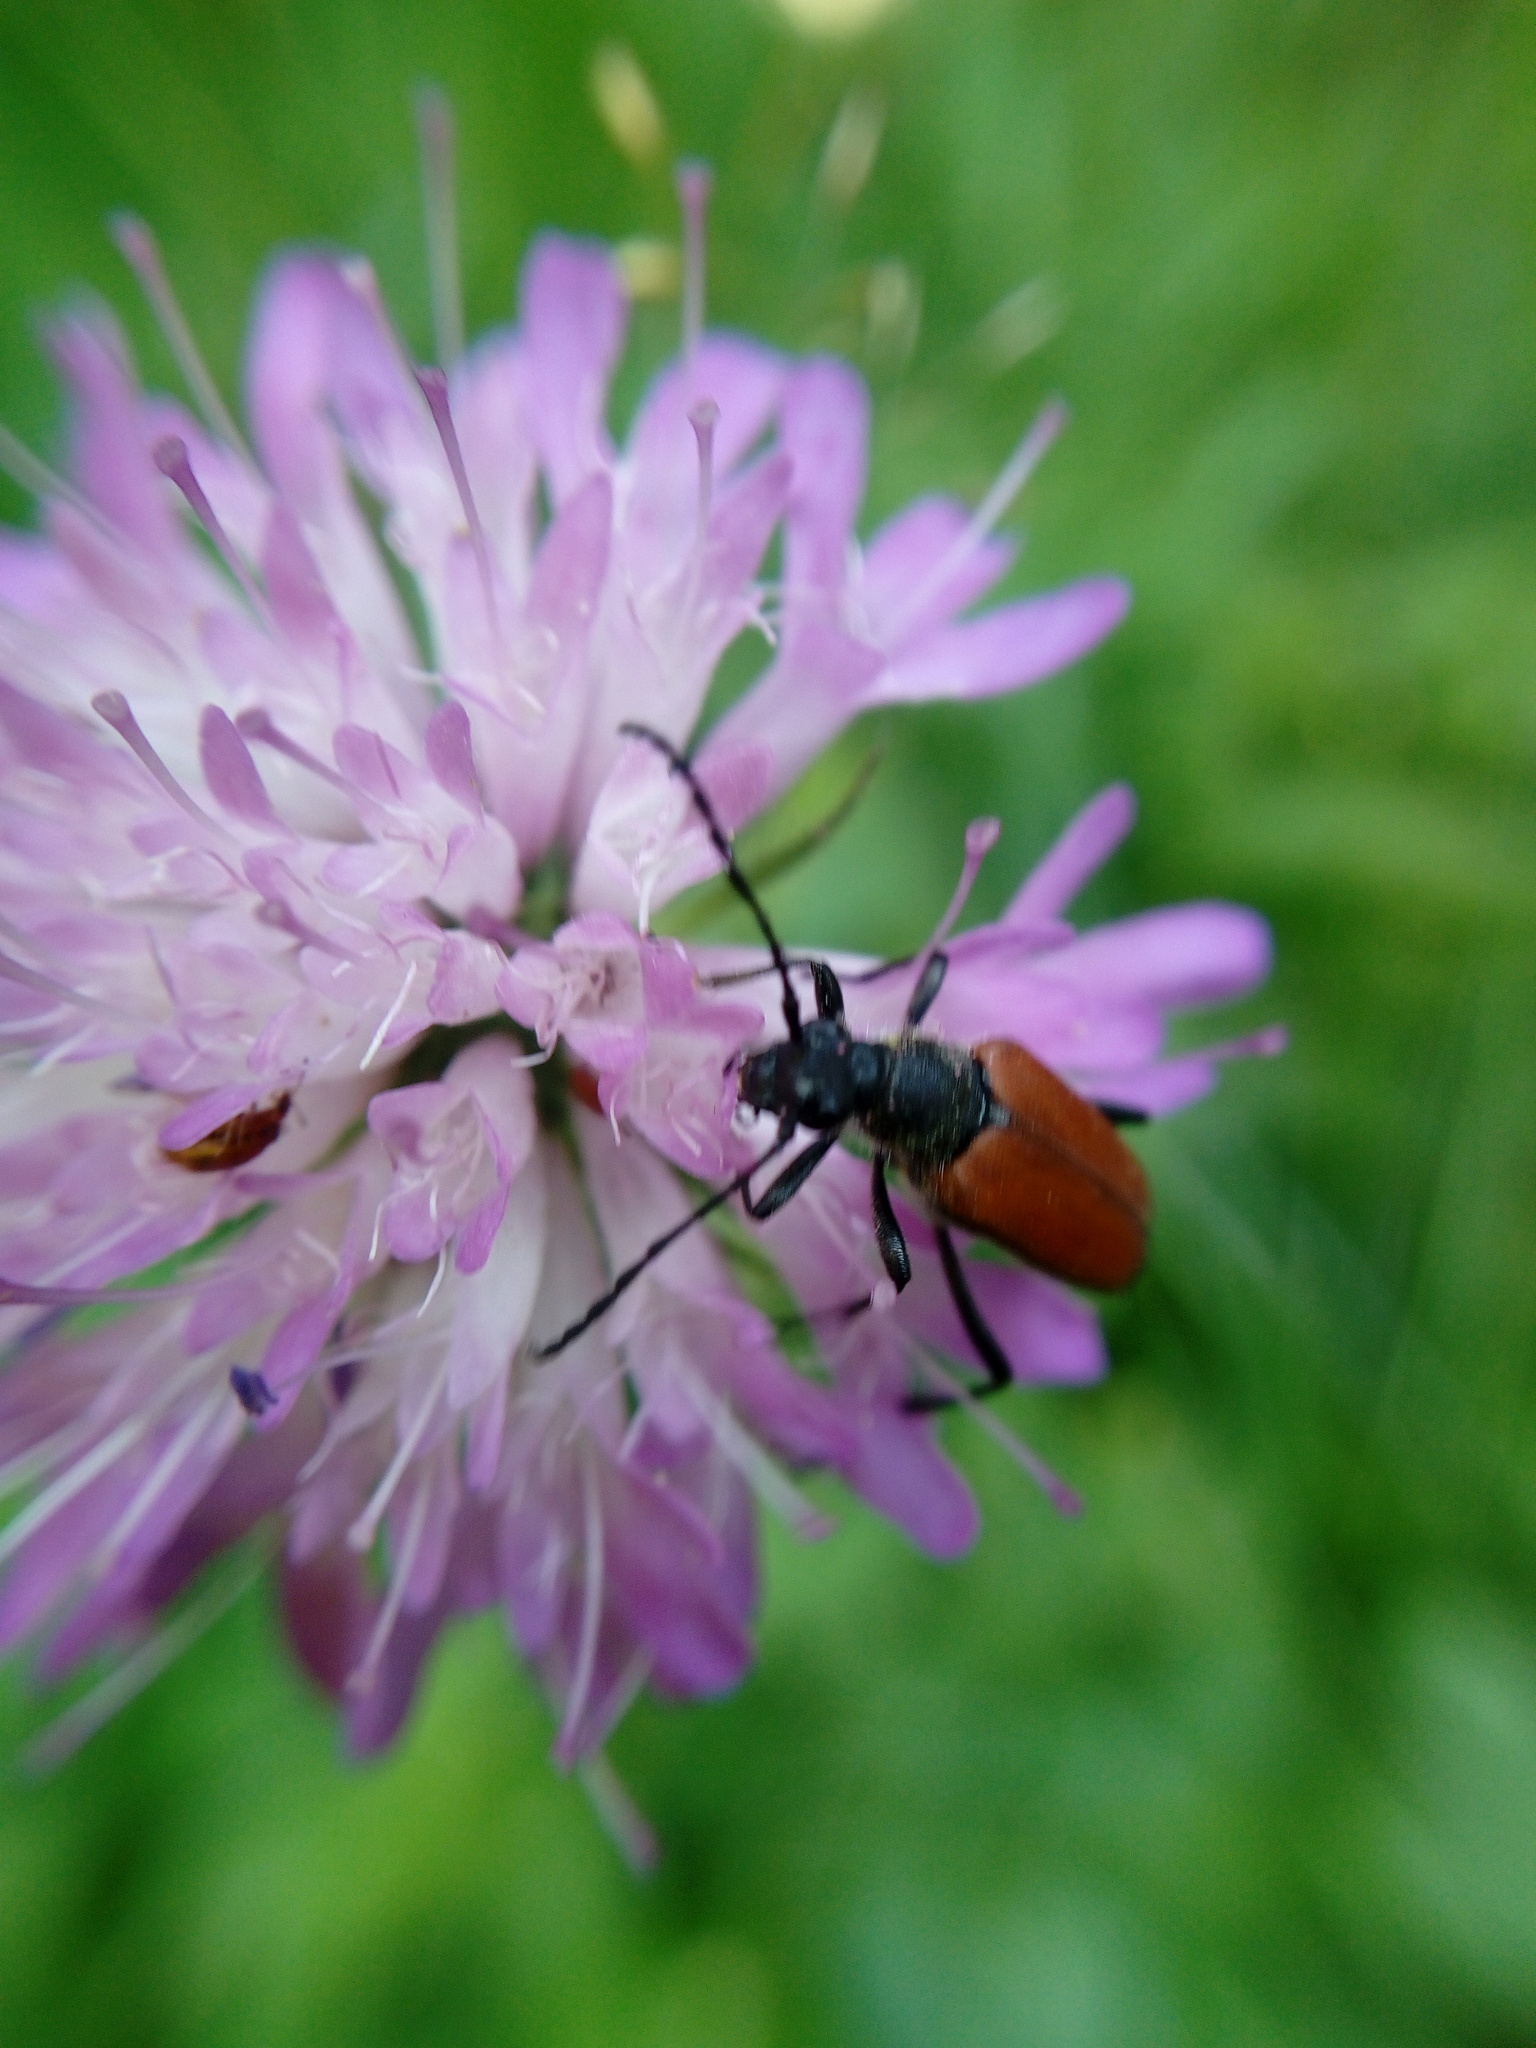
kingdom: Animalia
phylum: Arthropoda
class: Insecta
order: Coleoptera
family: Cerambycidae
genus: Anastrangalia
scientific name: Anastrangalia sanguinolenta
